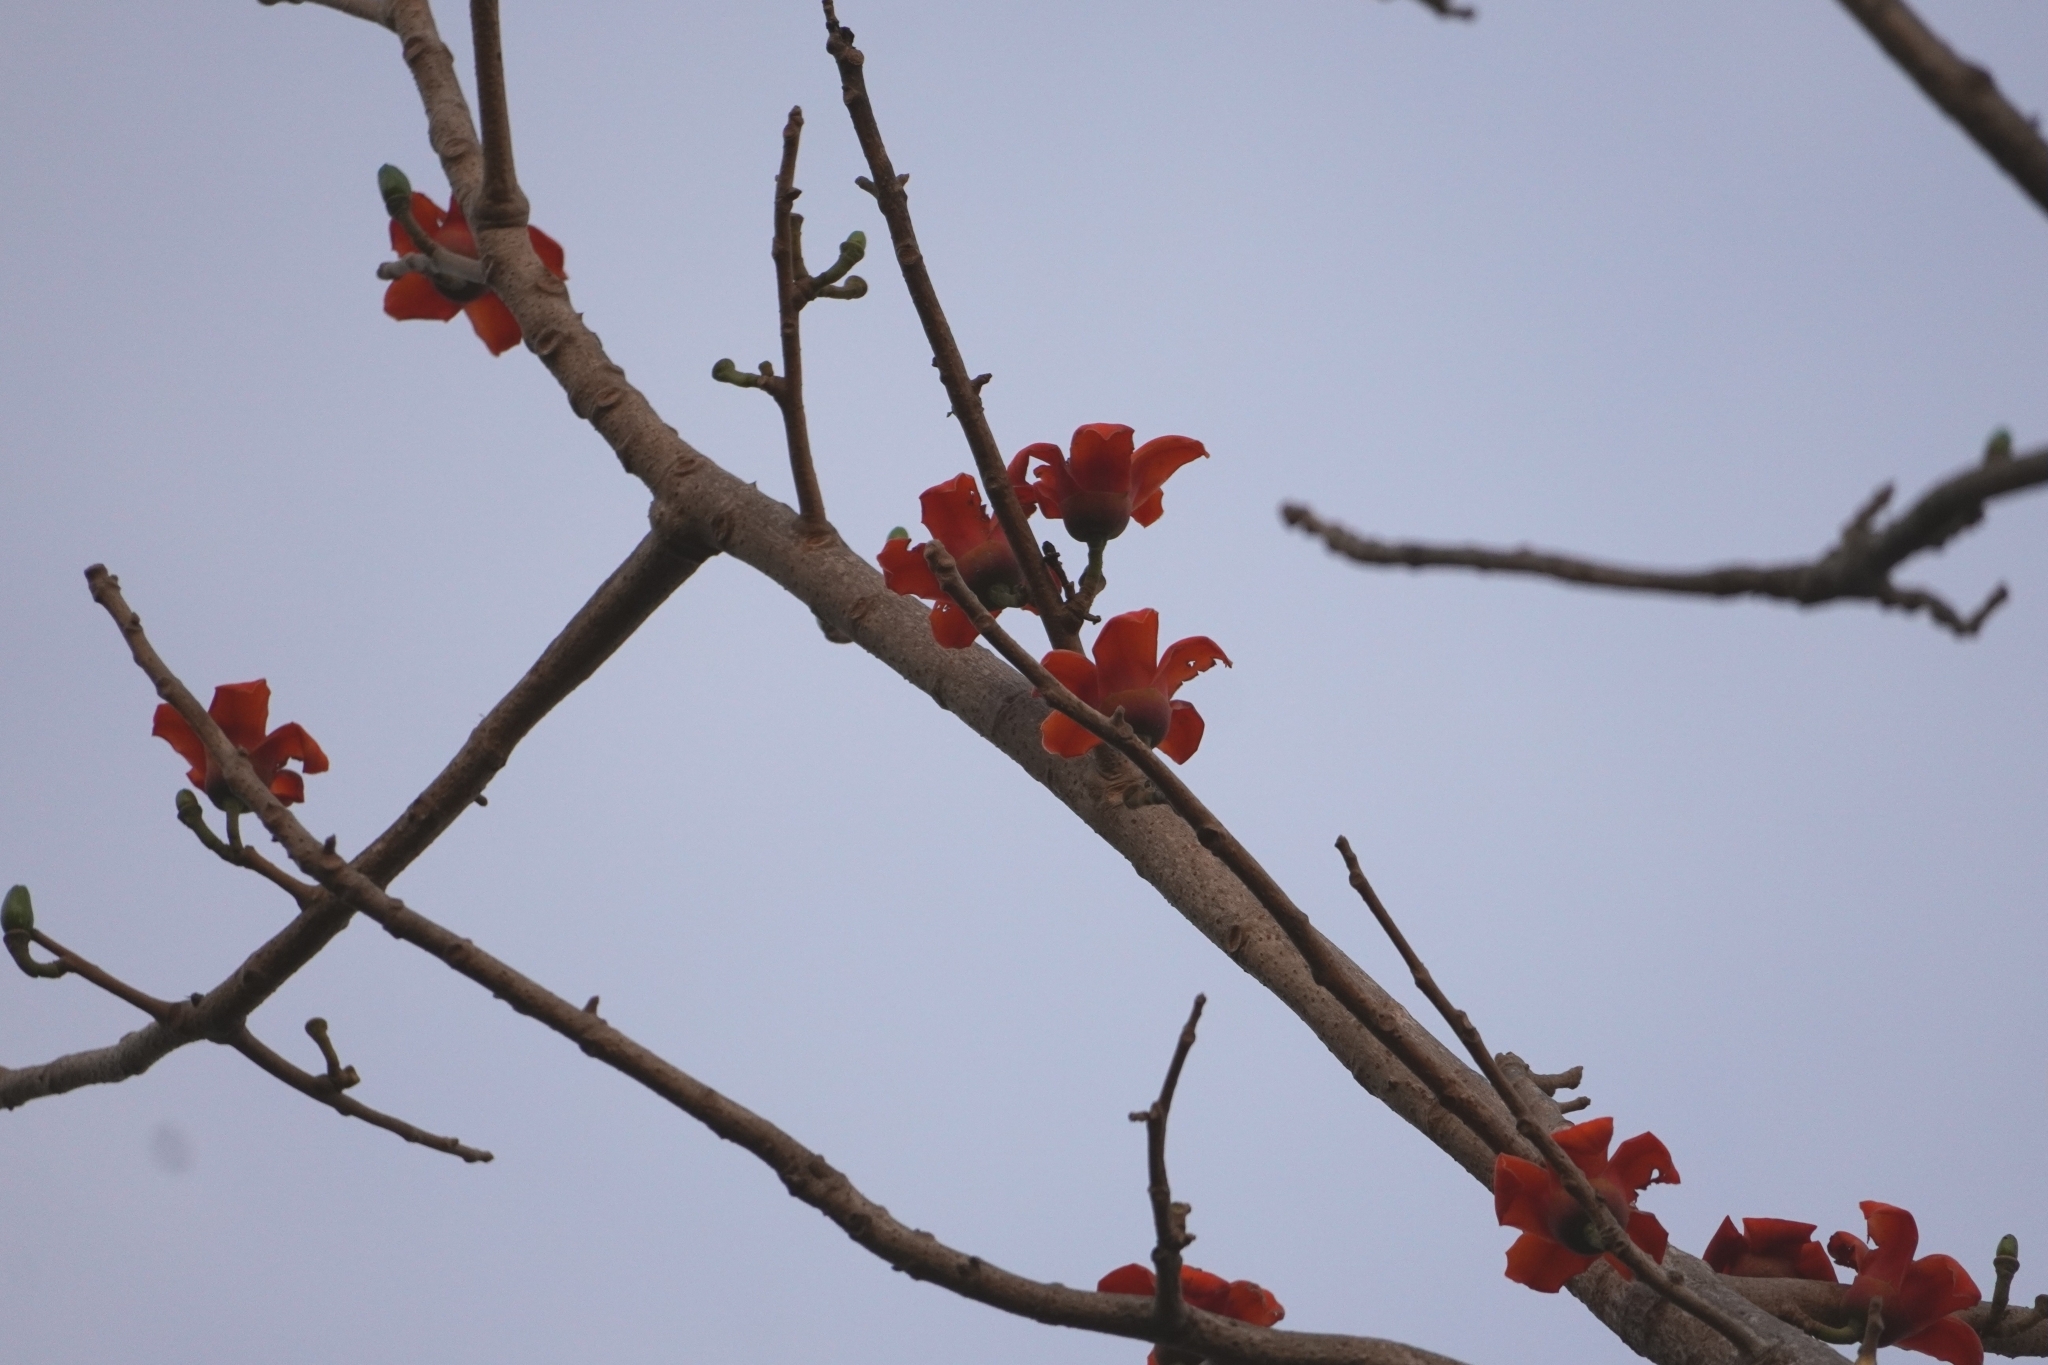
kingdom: Plantae
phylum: Tracheophyta
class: Magnoliopsida
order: Malvales
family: Malvaceae
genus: Bombax
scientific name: Bombax costatum
